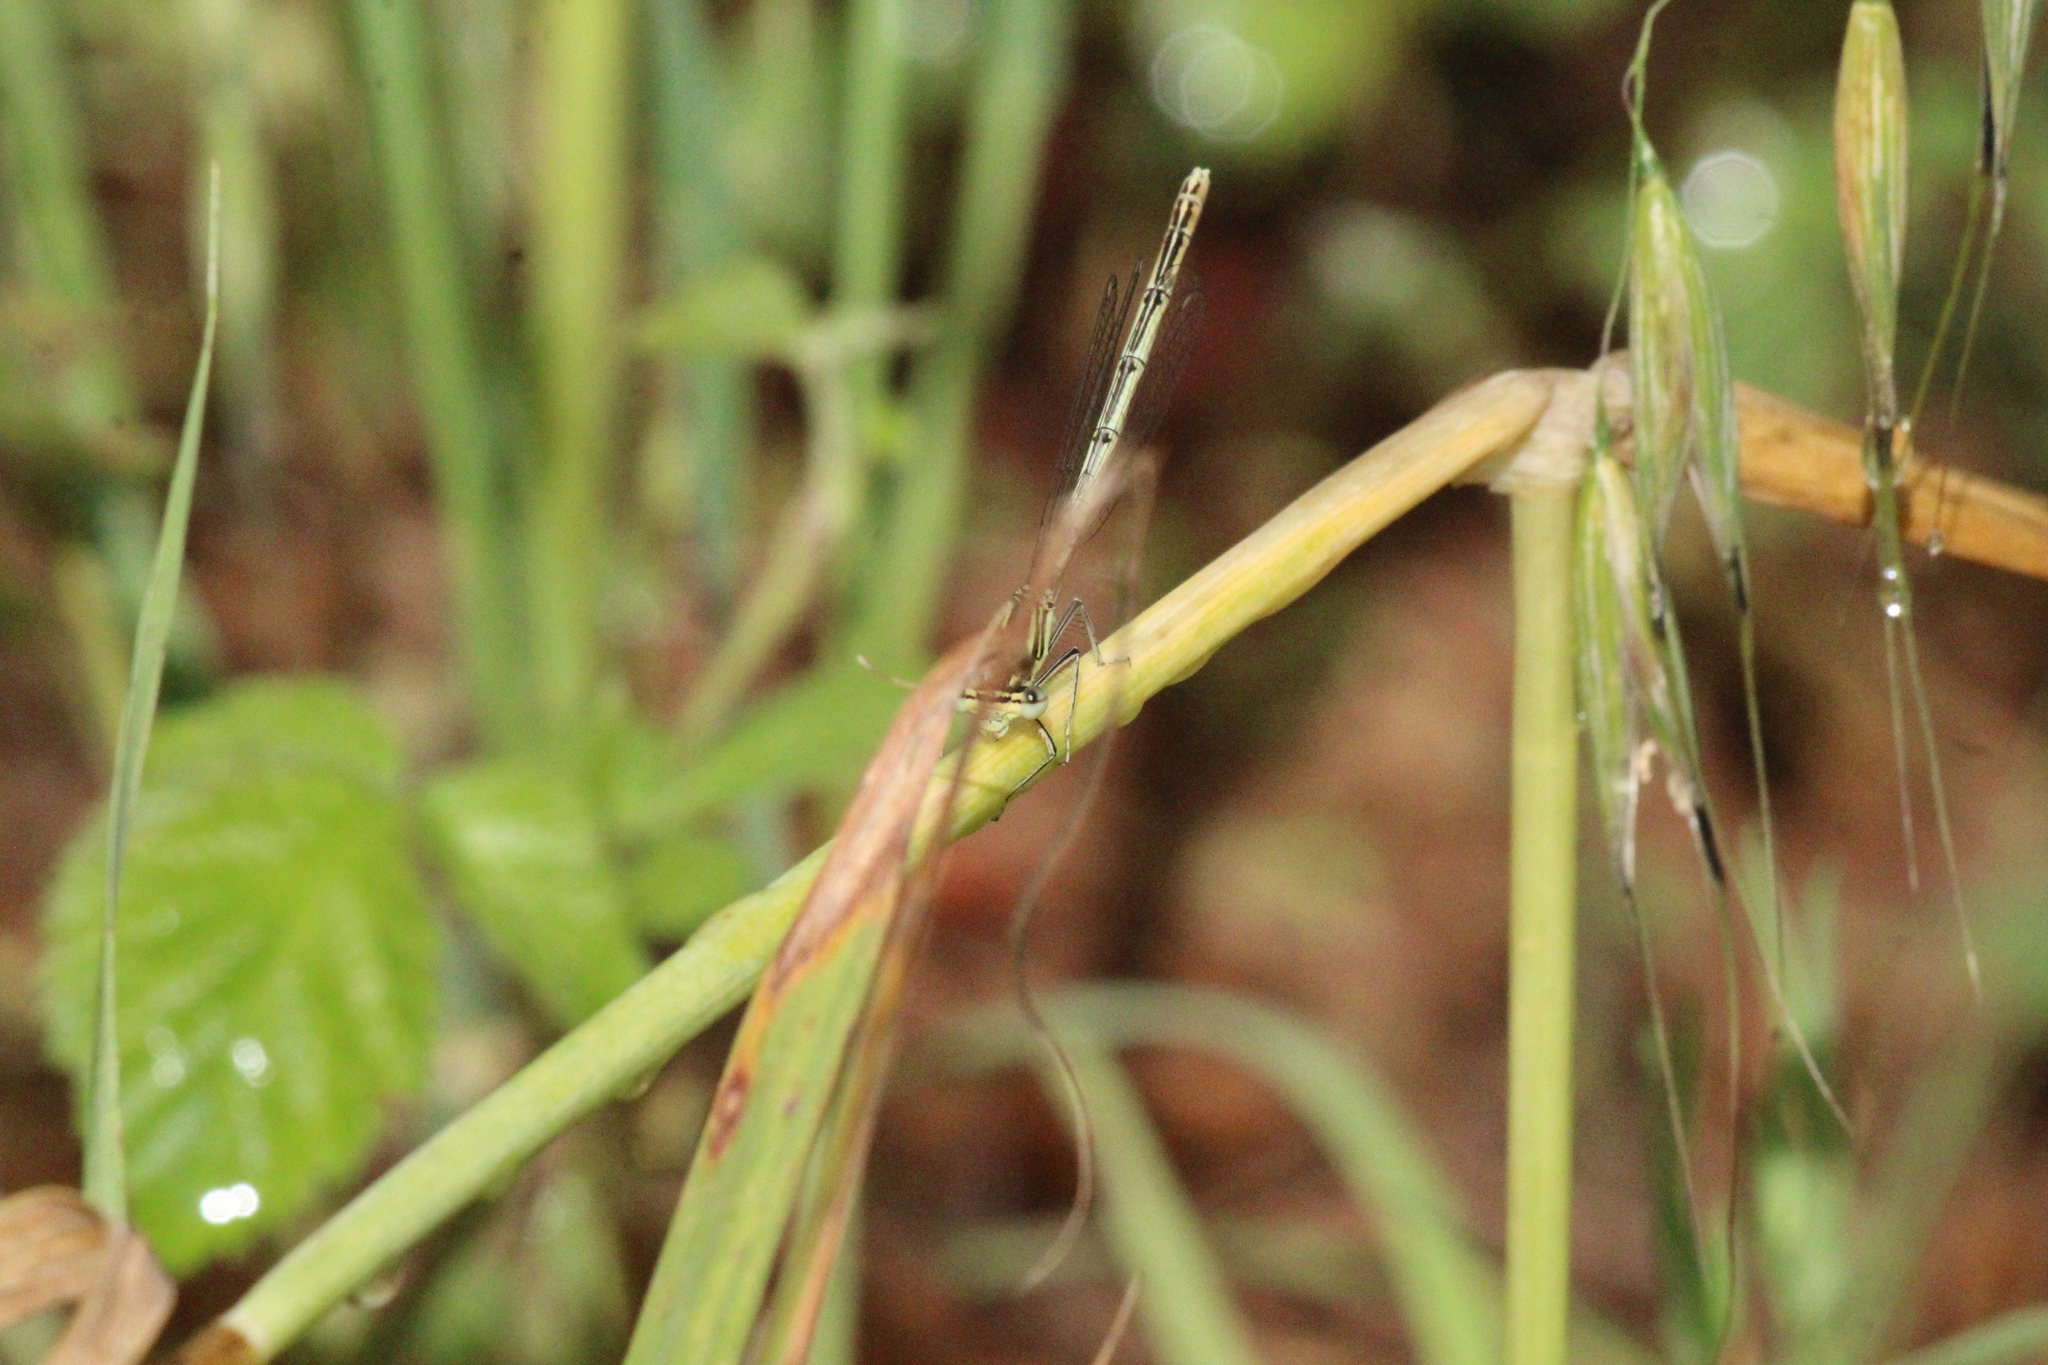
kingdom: Animalia
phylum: Arthropoda
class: Insecta
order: Odonata
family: Platycnemididae
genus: Platycnemis
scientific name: Platycnemis pennipes
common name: White-legged damselfly
